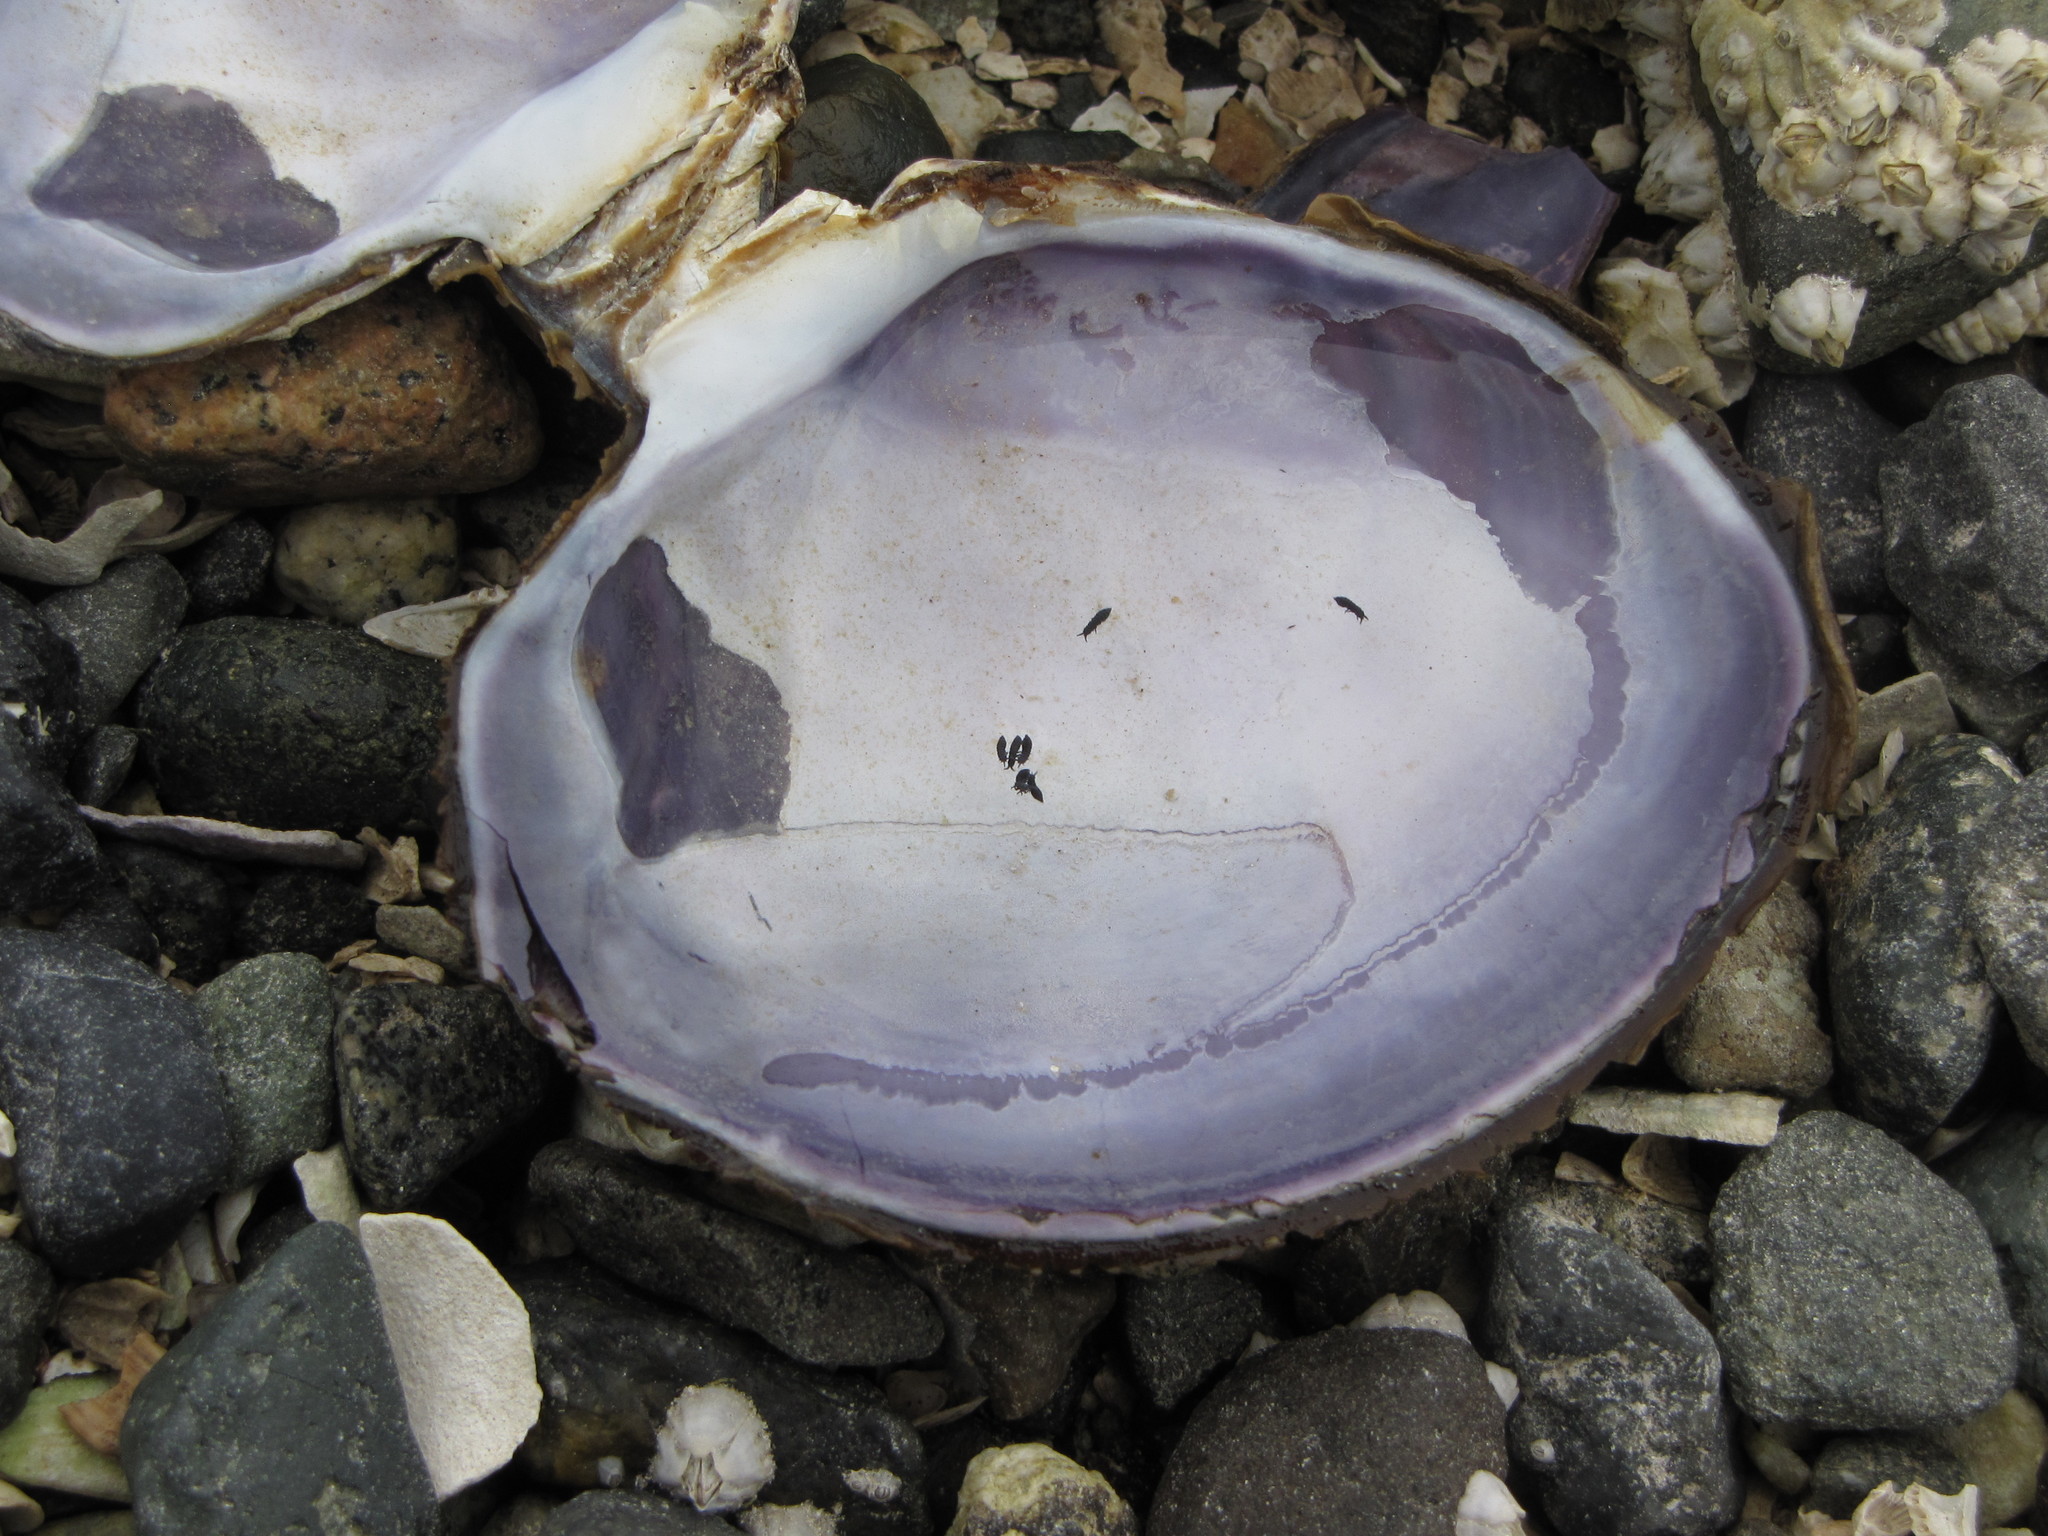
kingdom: Animalia
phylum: Mollusca
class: Bivalvia
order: Cardiida
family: Psammobiidae
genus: Nuttallia
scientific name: Nuttallia obscurata
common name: Purple mahogany-clam
